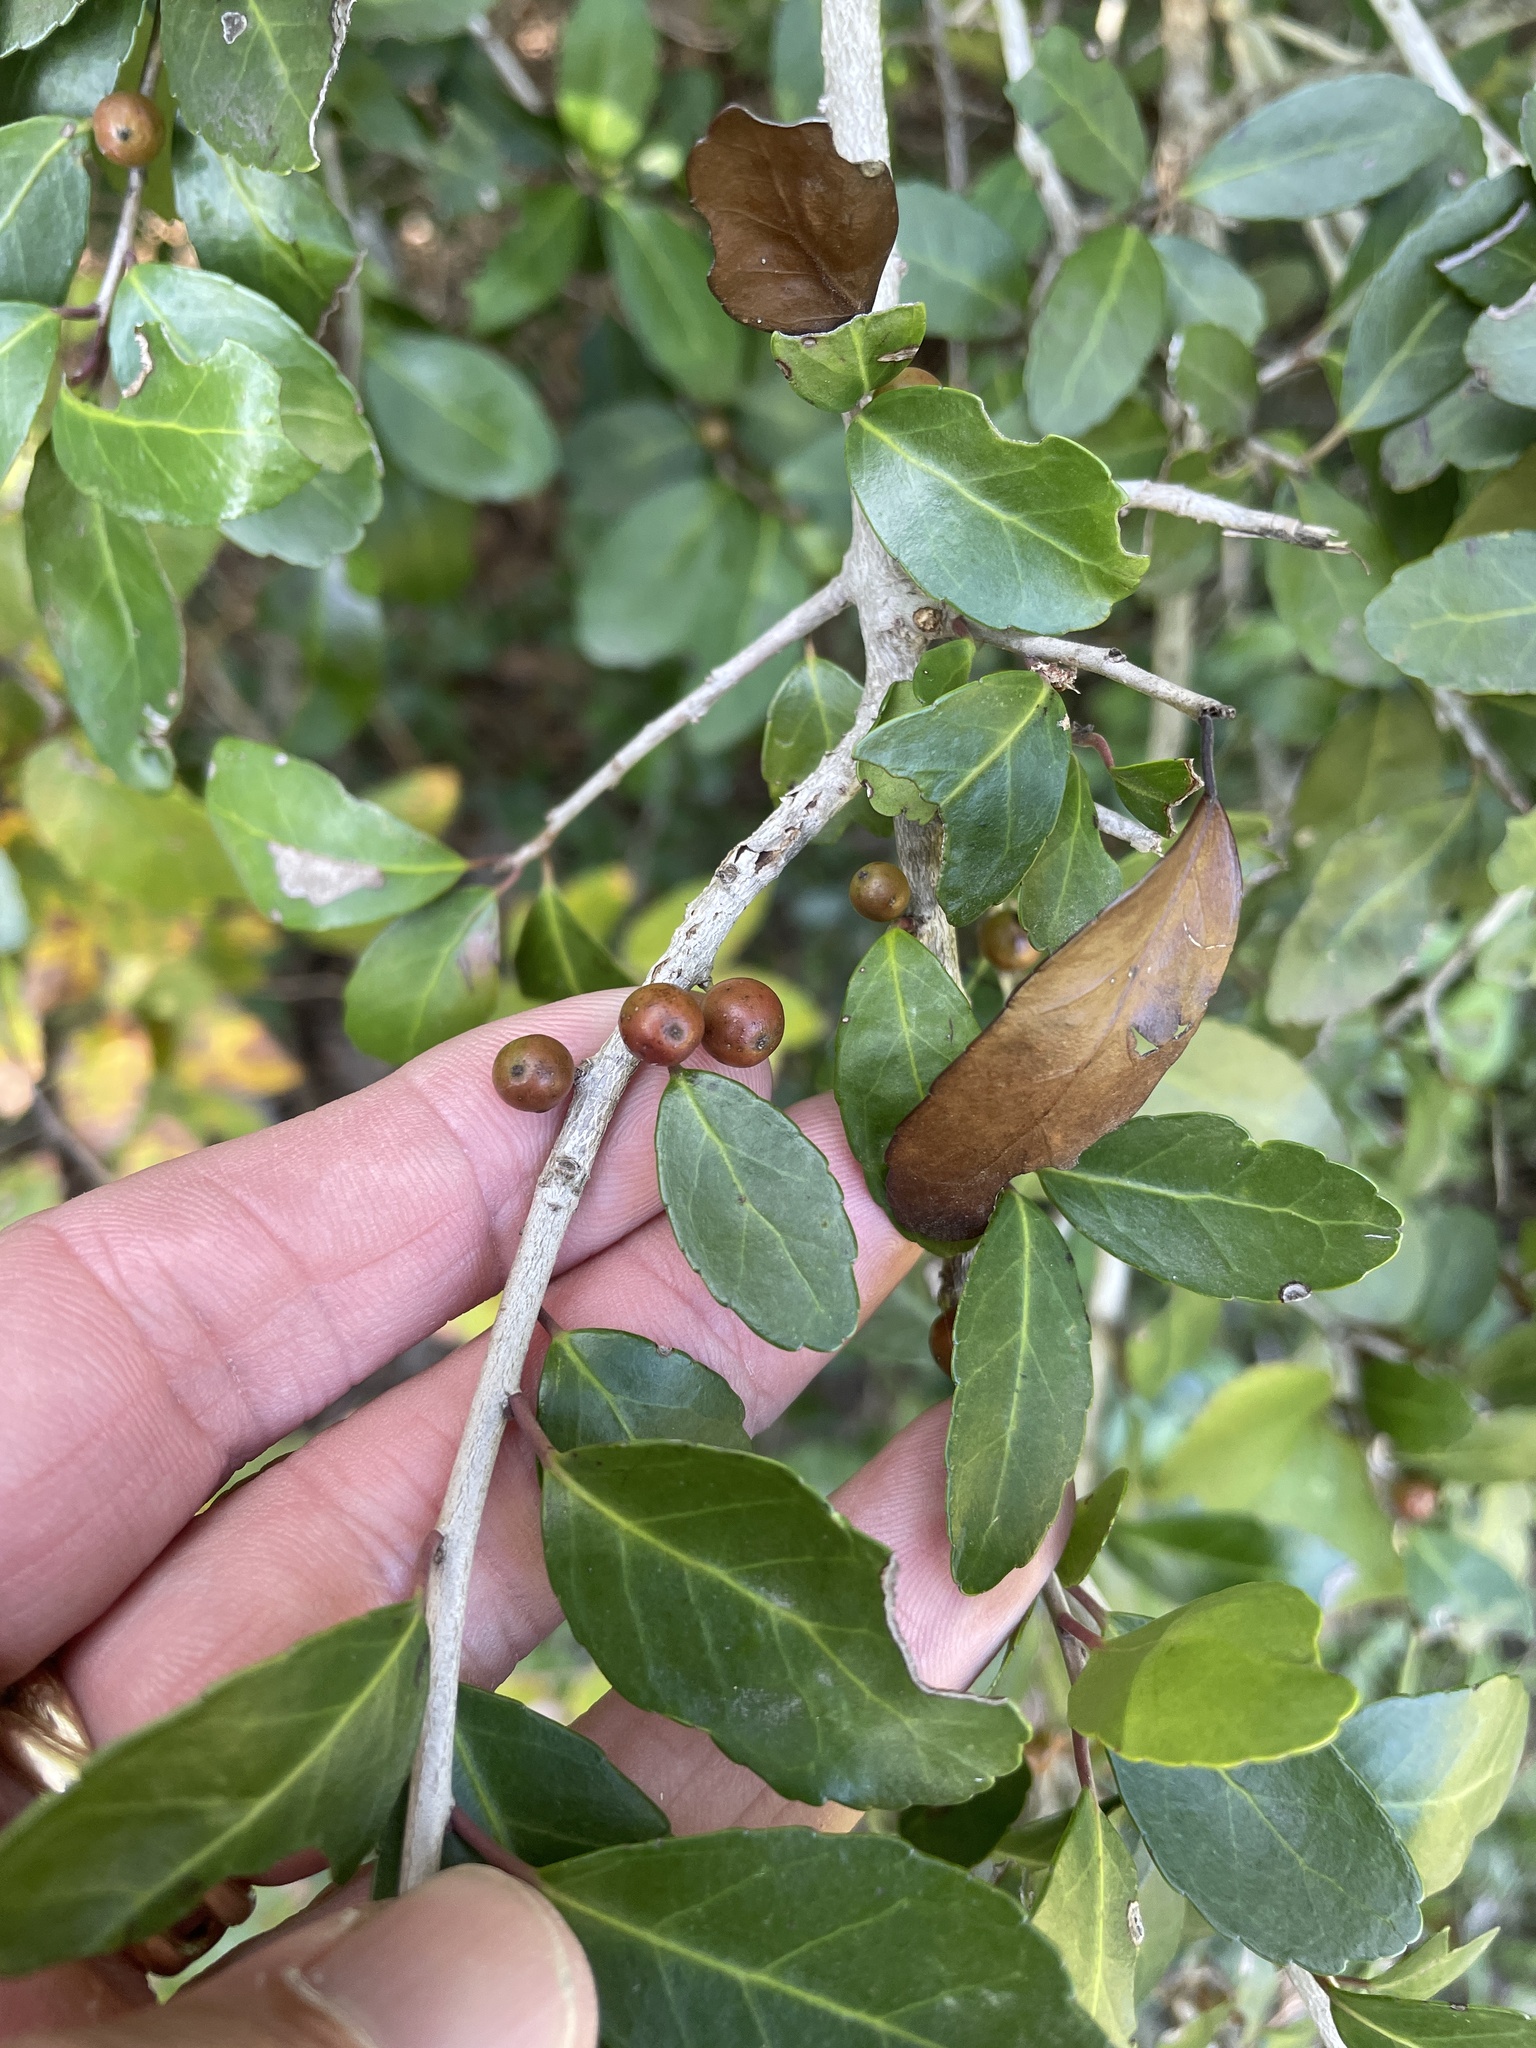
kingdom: Plantae
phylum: Tracheophyta
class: Magnoliopsida
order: Aquifoliales
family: Aquifoliaceae
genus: Ilex
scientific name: Ilex vomitoria
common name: Yaupon holly
